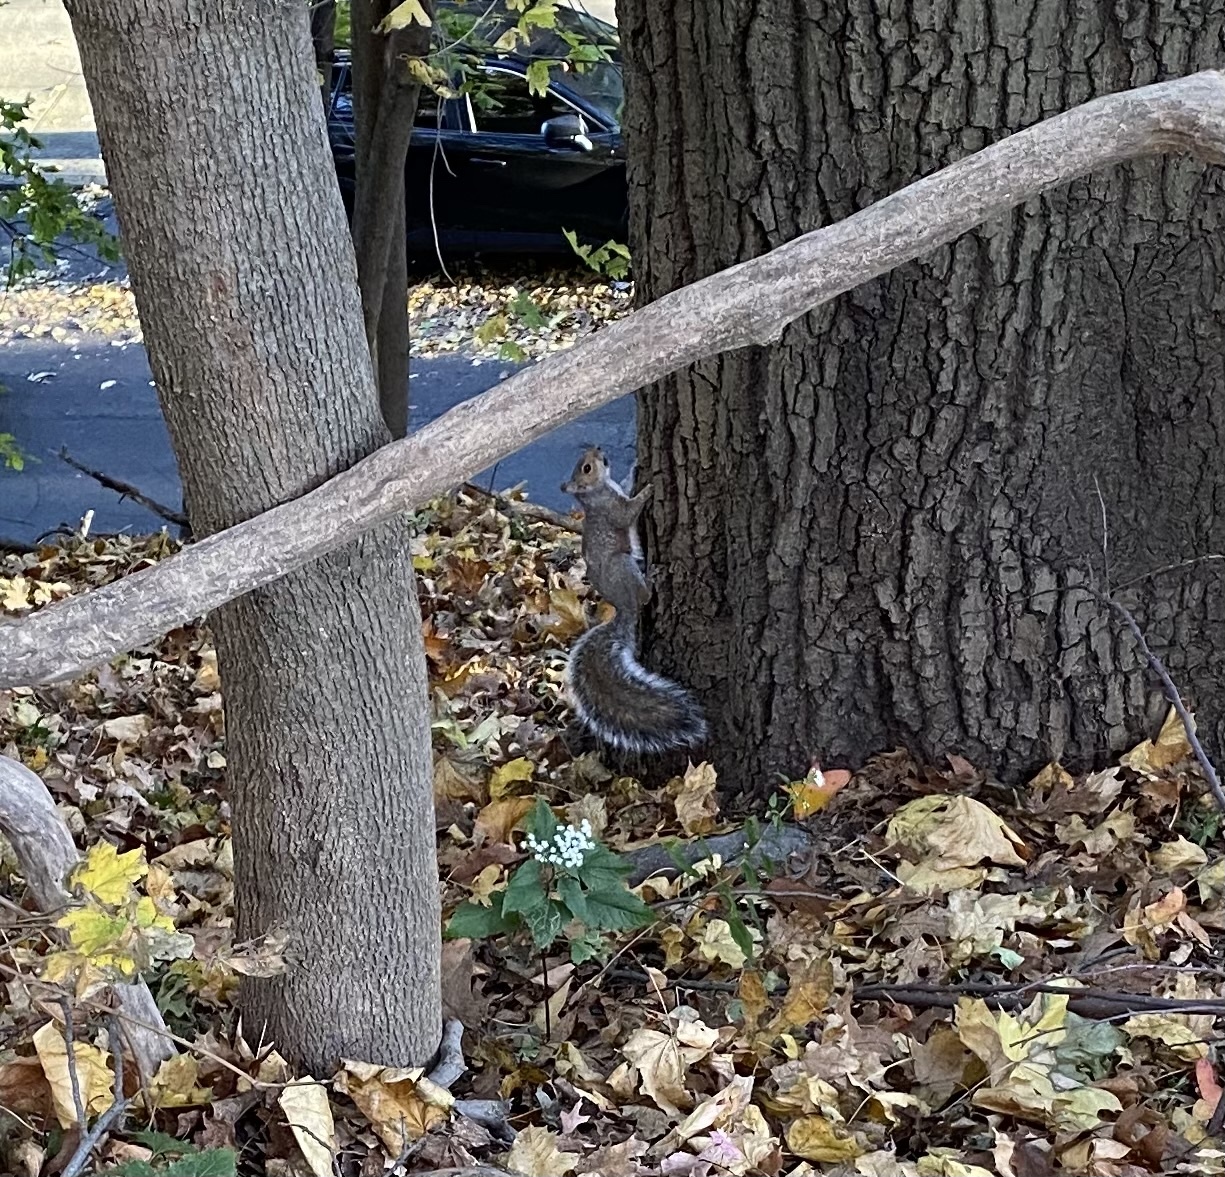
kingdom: Animalia
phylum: Chordata
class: Mammalia
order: Rodentia
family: Sciuridae
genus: Sciurus
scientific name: Sciurus carolinensis
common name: Eastern gray squirrel
